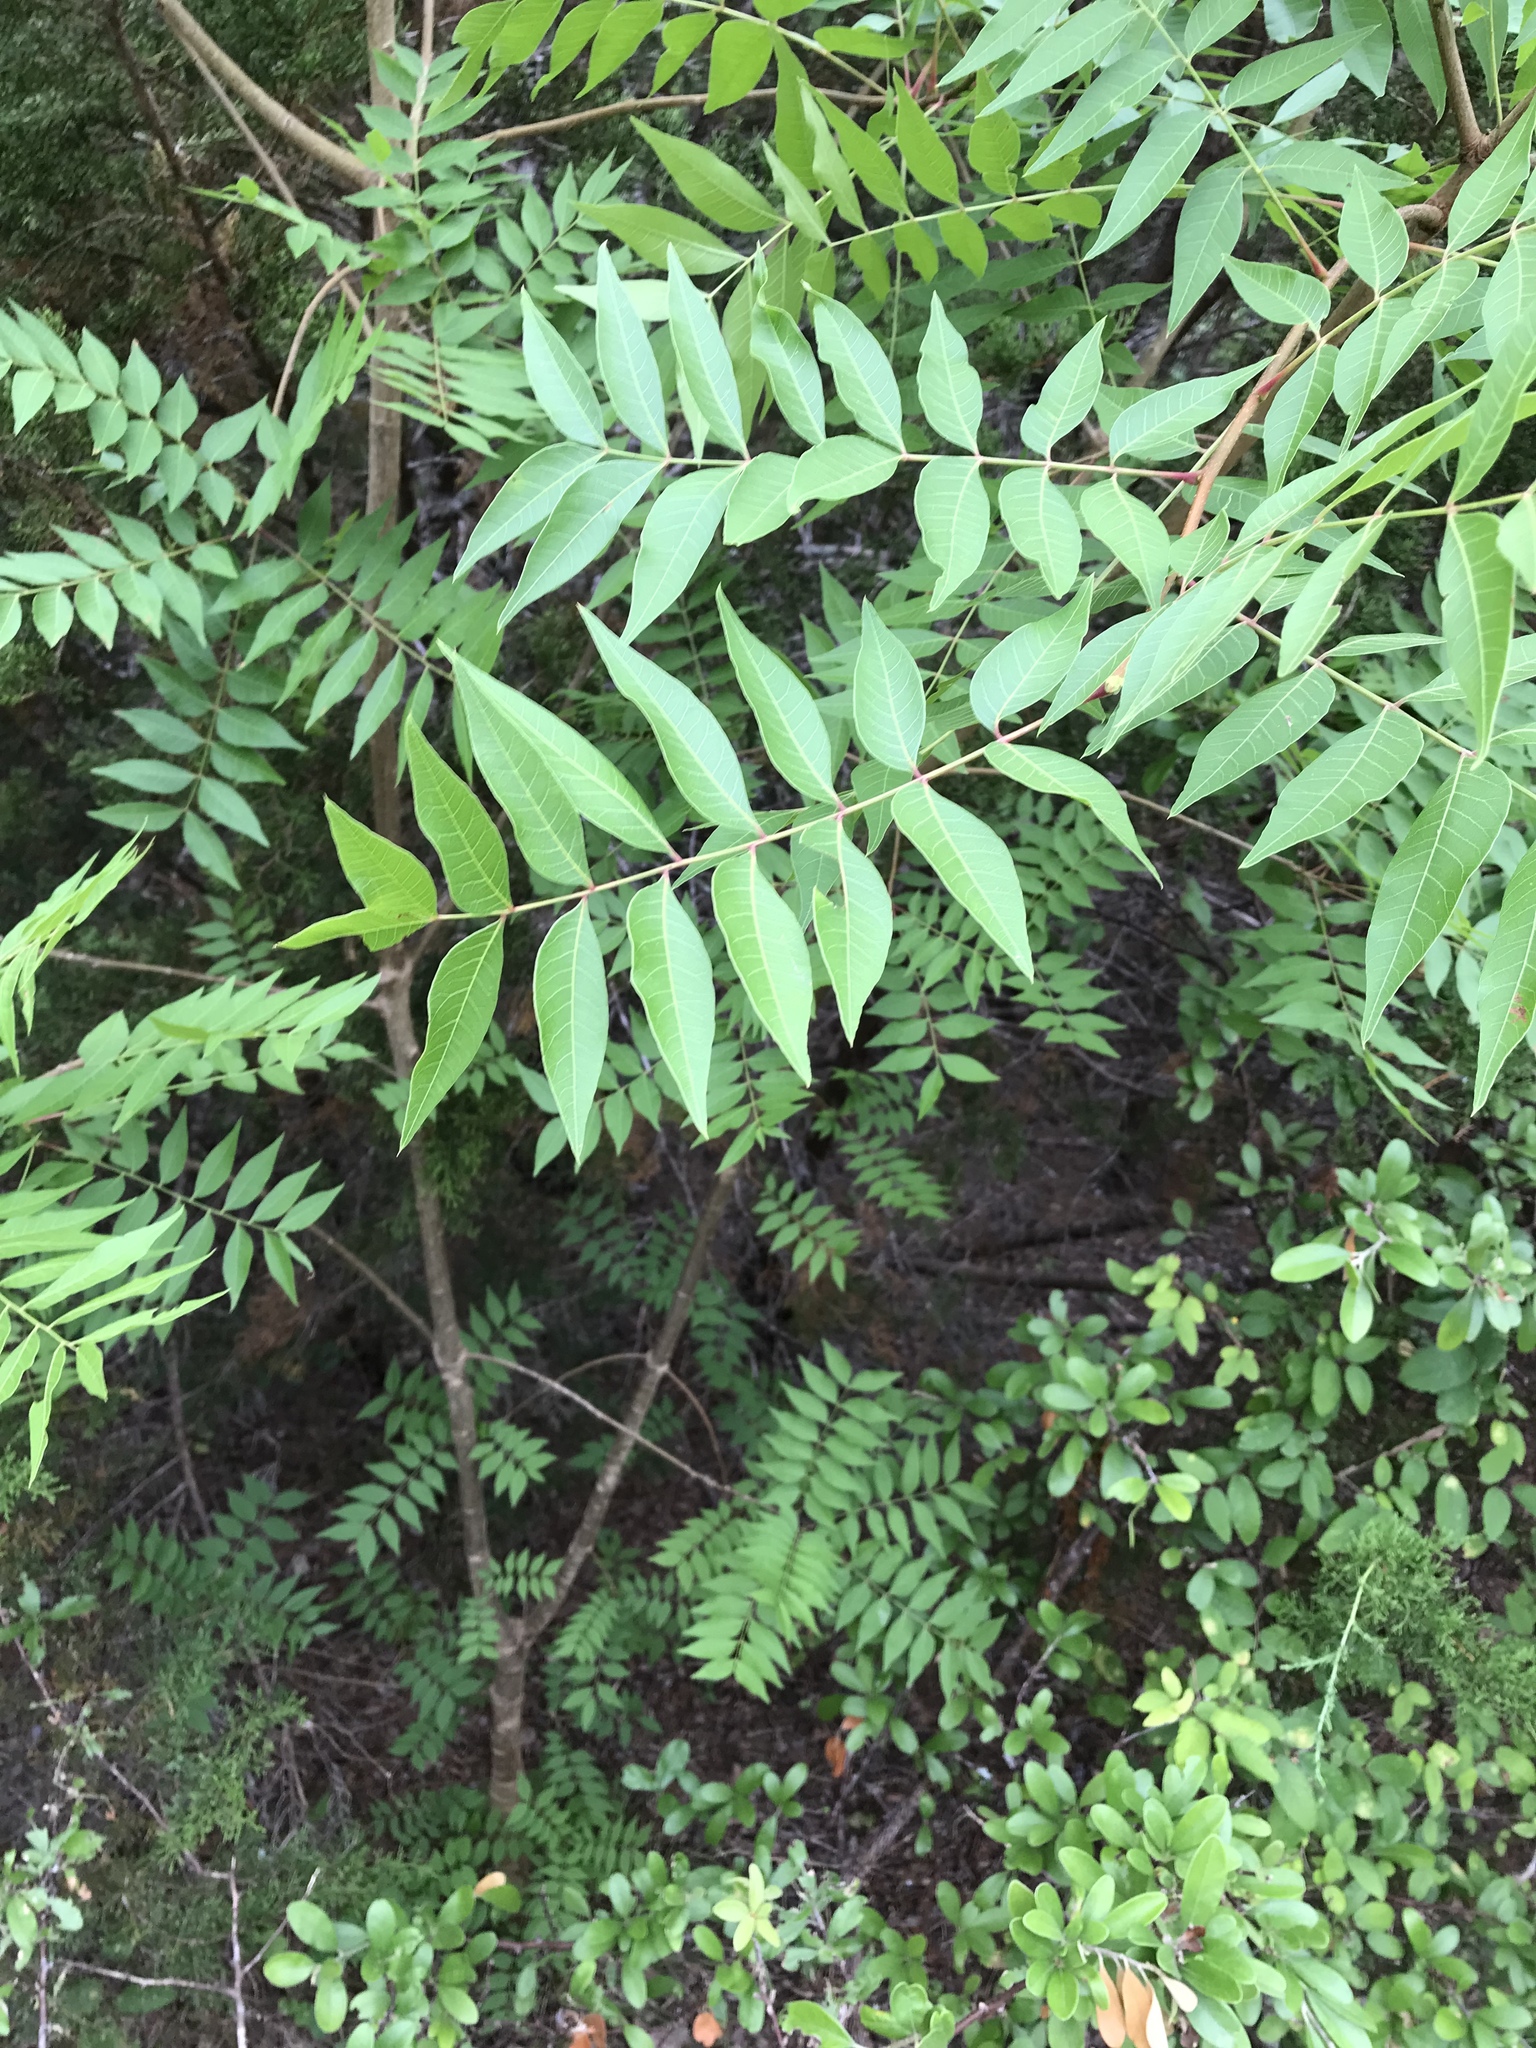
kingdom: Plantae
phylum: Tracheophyta
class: Magnoliopsida
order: Sapindales
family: Anacardiaceae
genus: Pistacia
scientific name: Pistacia chinensis
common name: Chinese pistache
